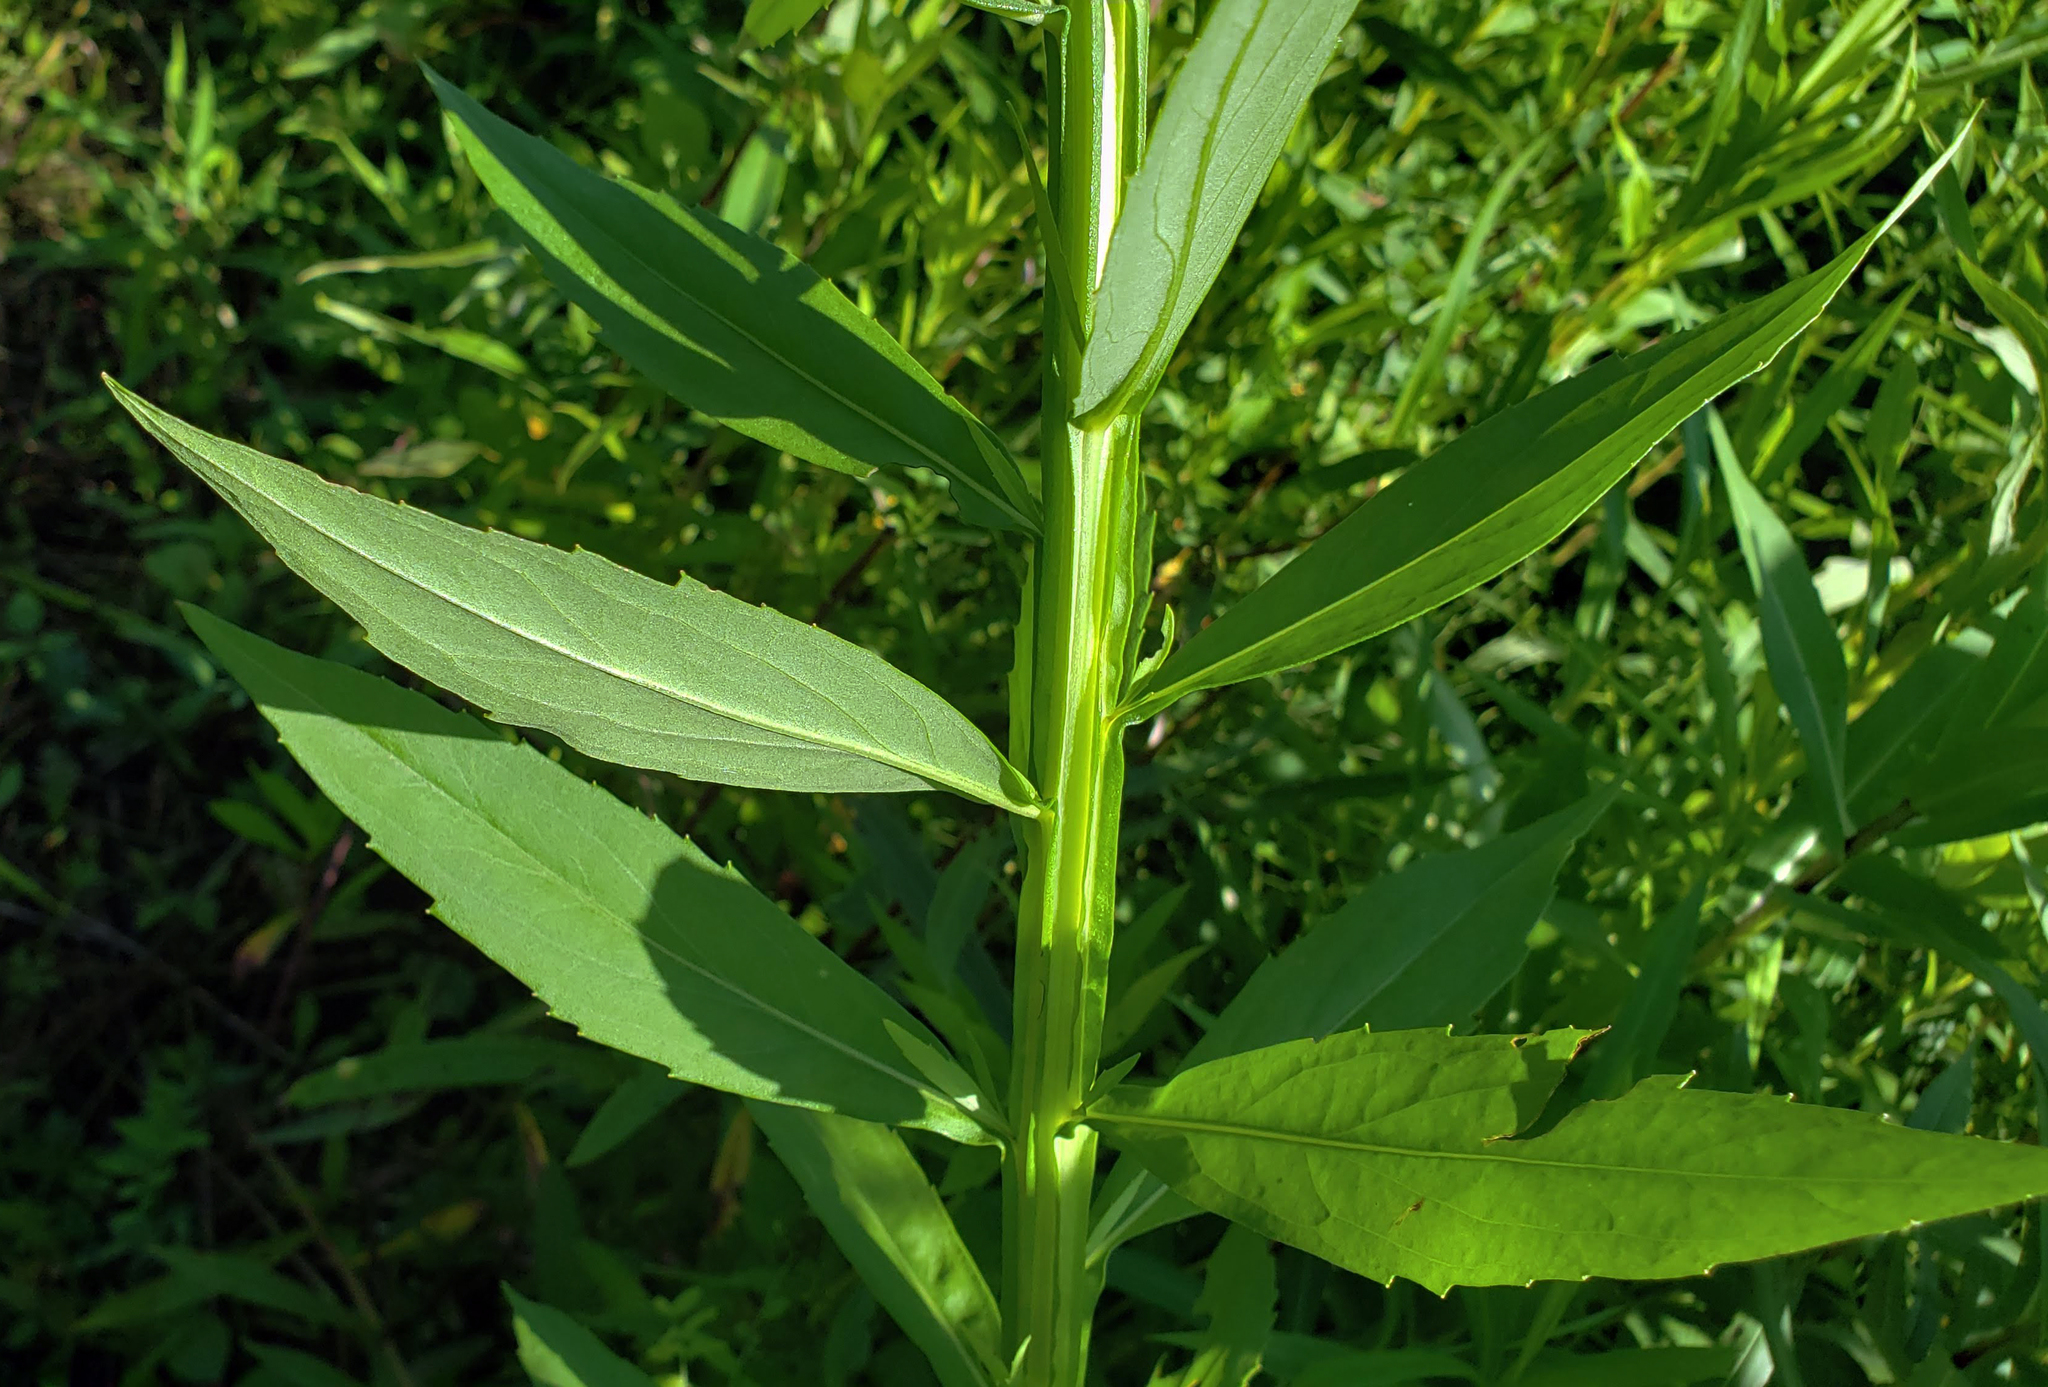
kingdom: Plantae
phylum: Tracheophyta
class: Magnoliopsida
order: Asterales
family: Asteraceae
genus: Helenium
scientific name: Helenium autumnale
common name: Sneezeweed
